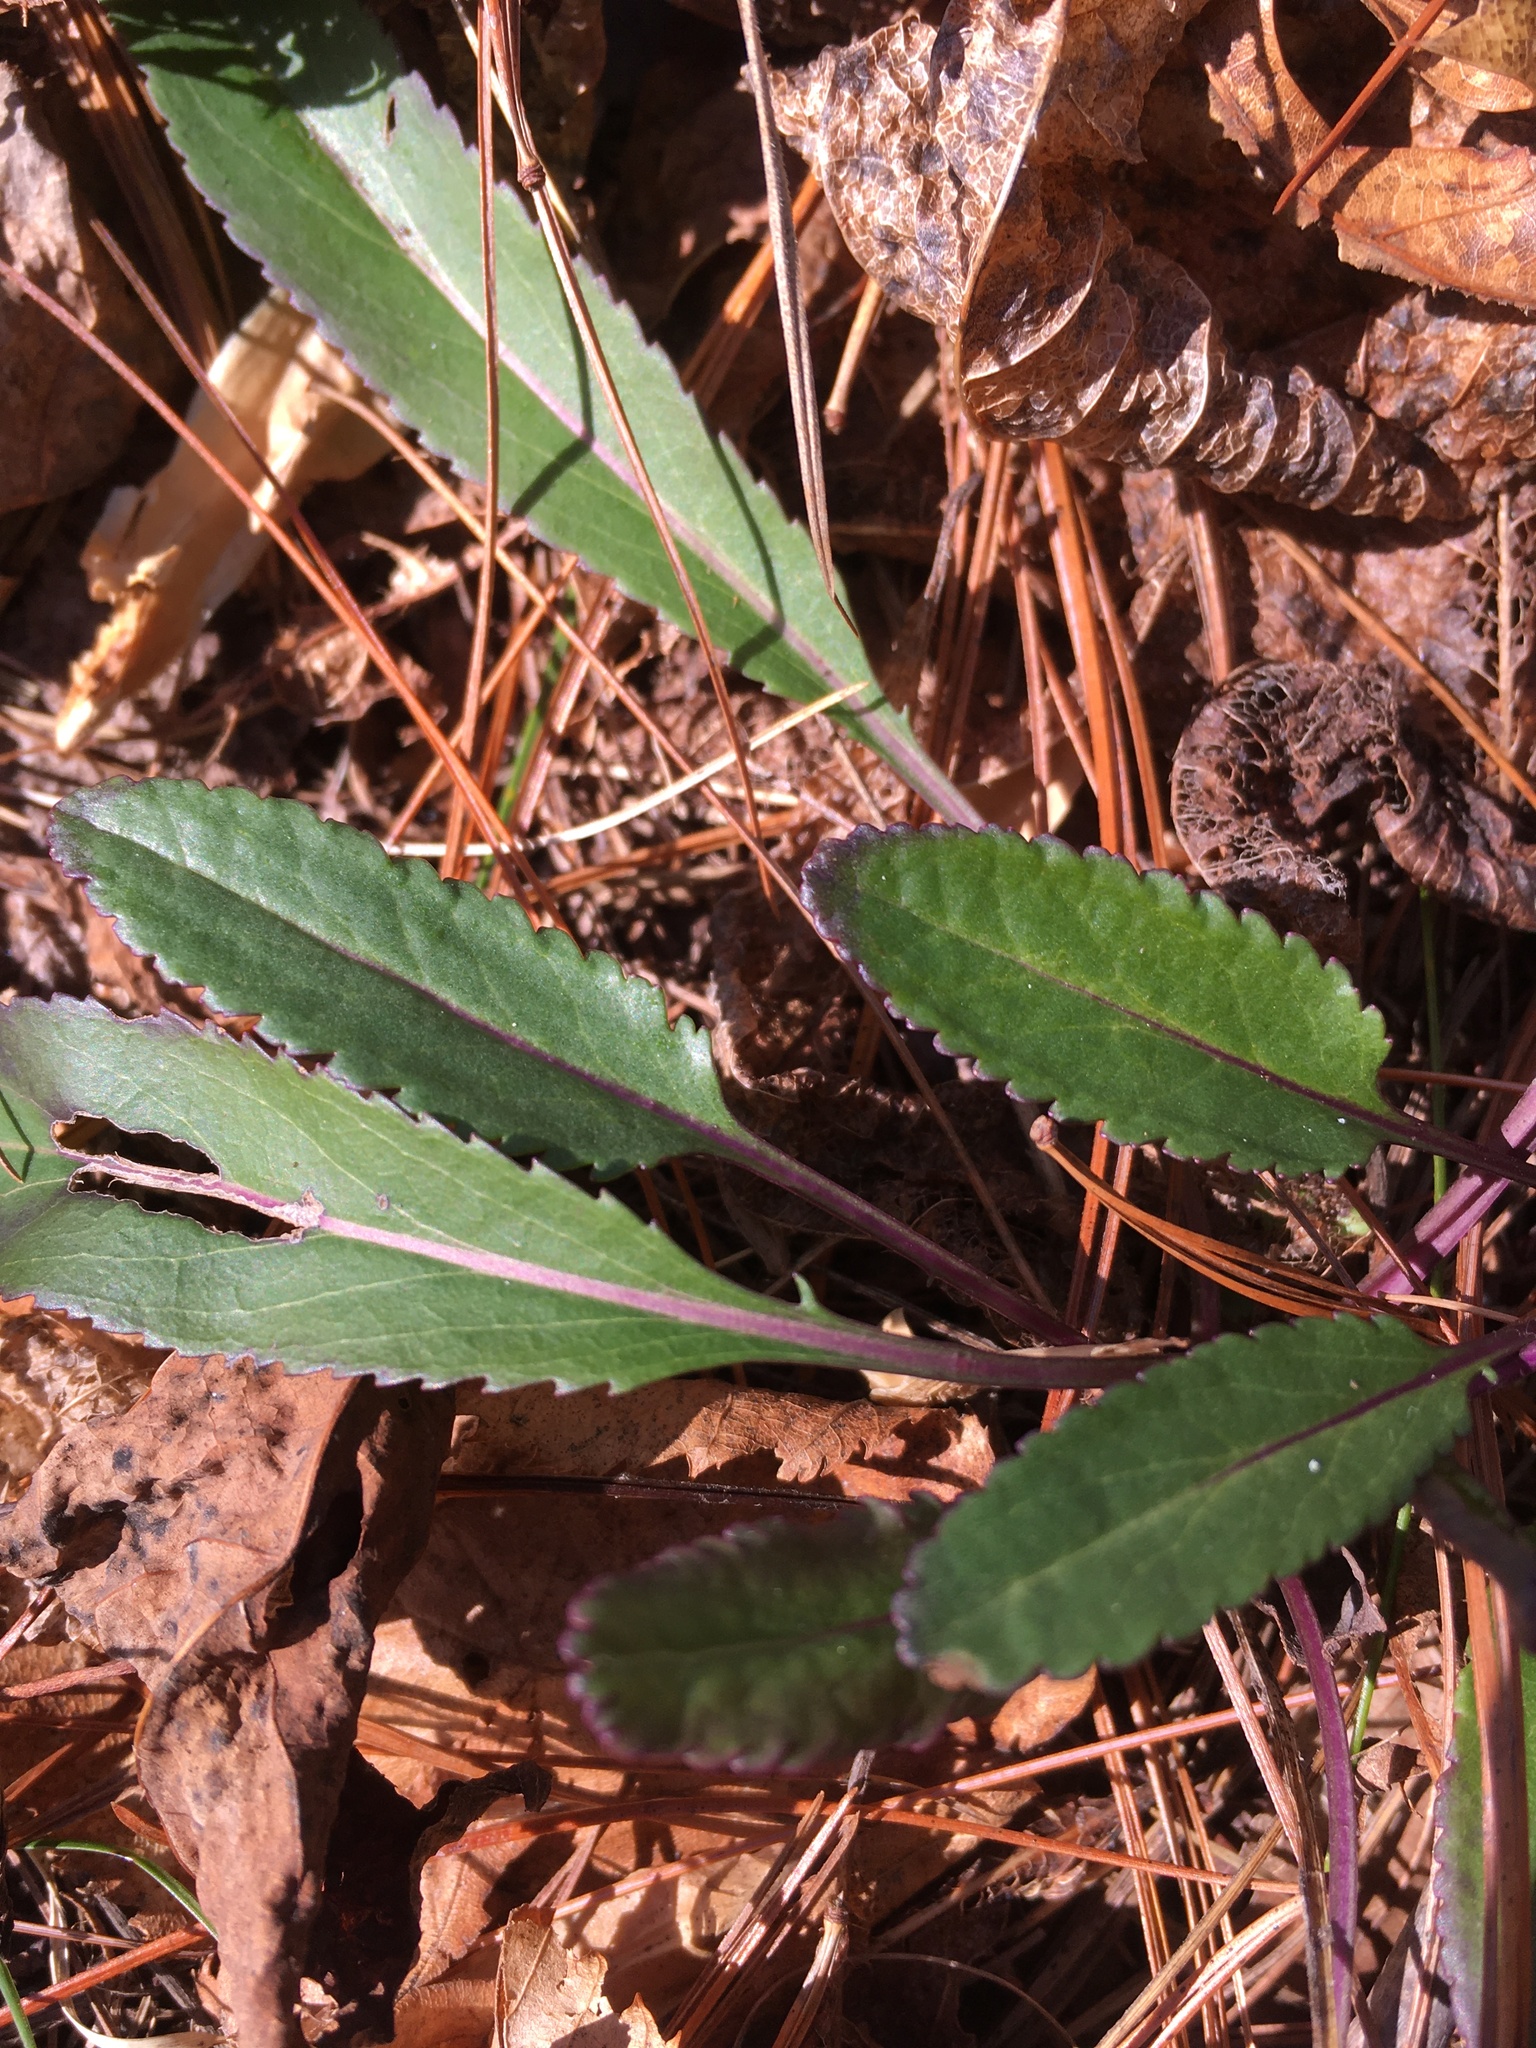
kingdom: Plantae
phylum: Tracheophyta
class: Magnoliopsida
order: Asterales
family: Asteraceae
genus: Packera
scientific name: Packera anonyma
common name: Small ragwort
